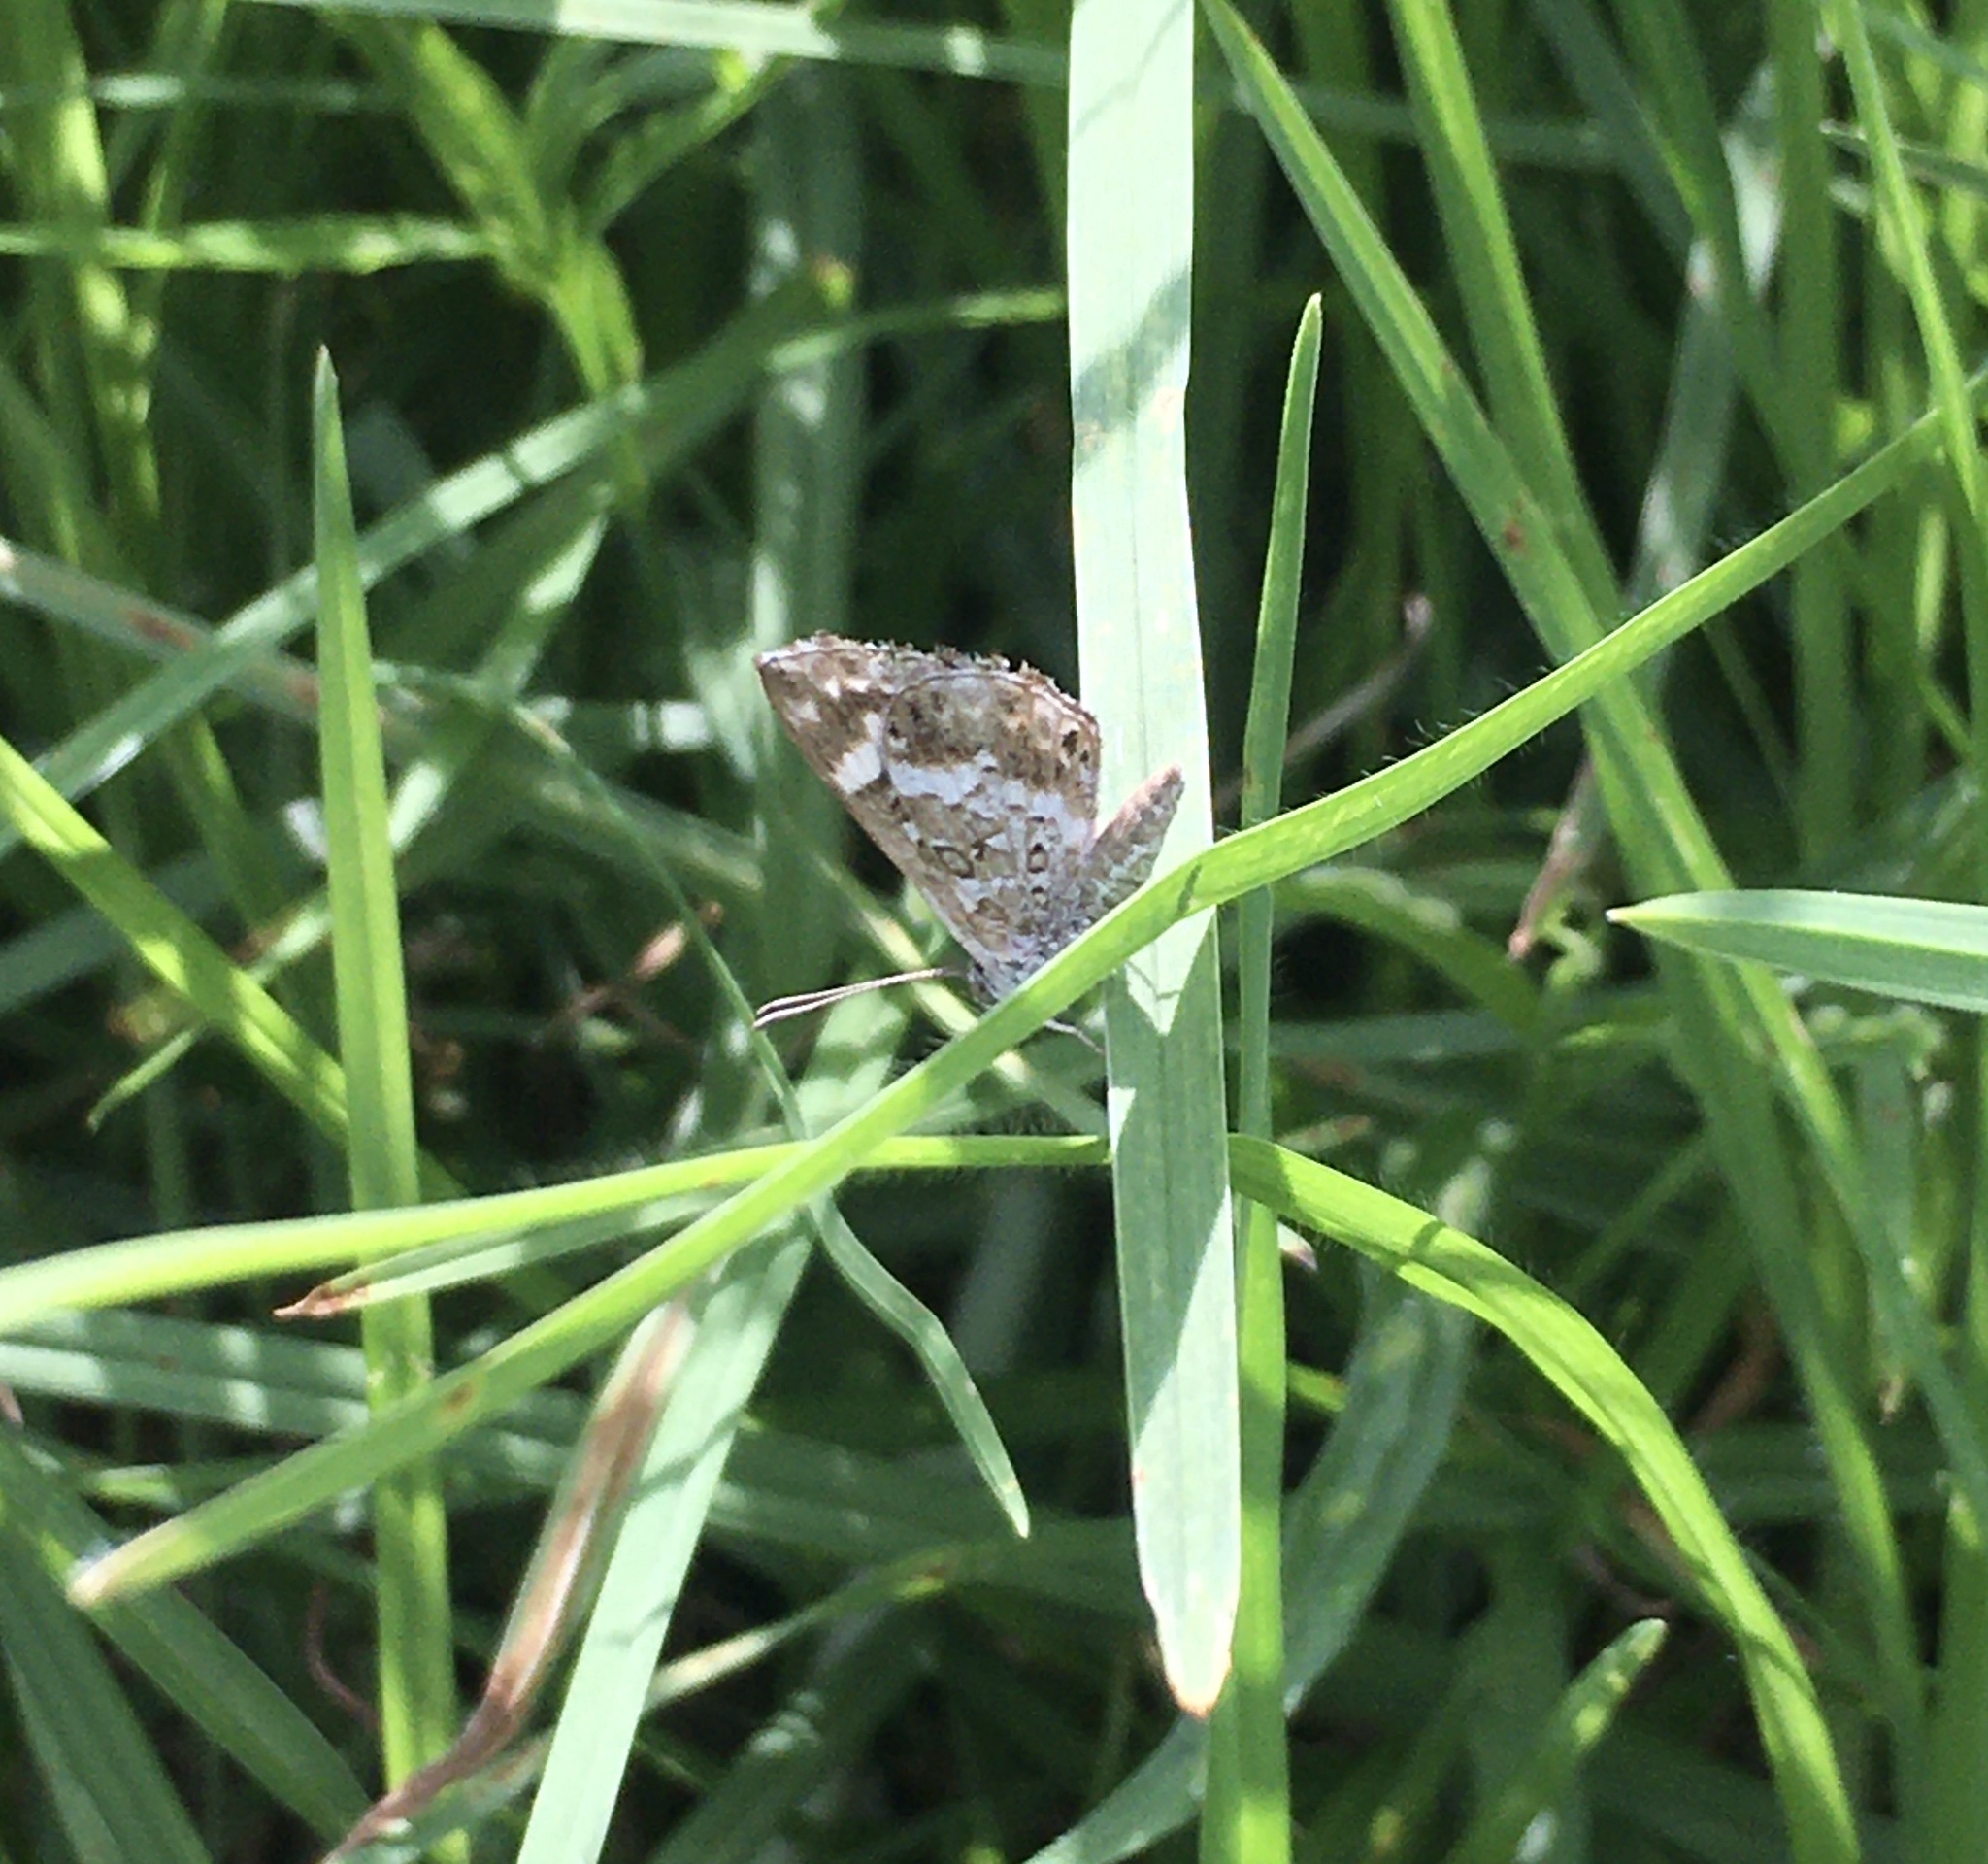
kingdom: Animalia
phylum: Arthropoda
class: Insecta
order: Lepidoptera
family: Lycaenidae
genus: Aricoris
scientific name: Aricoris signata
